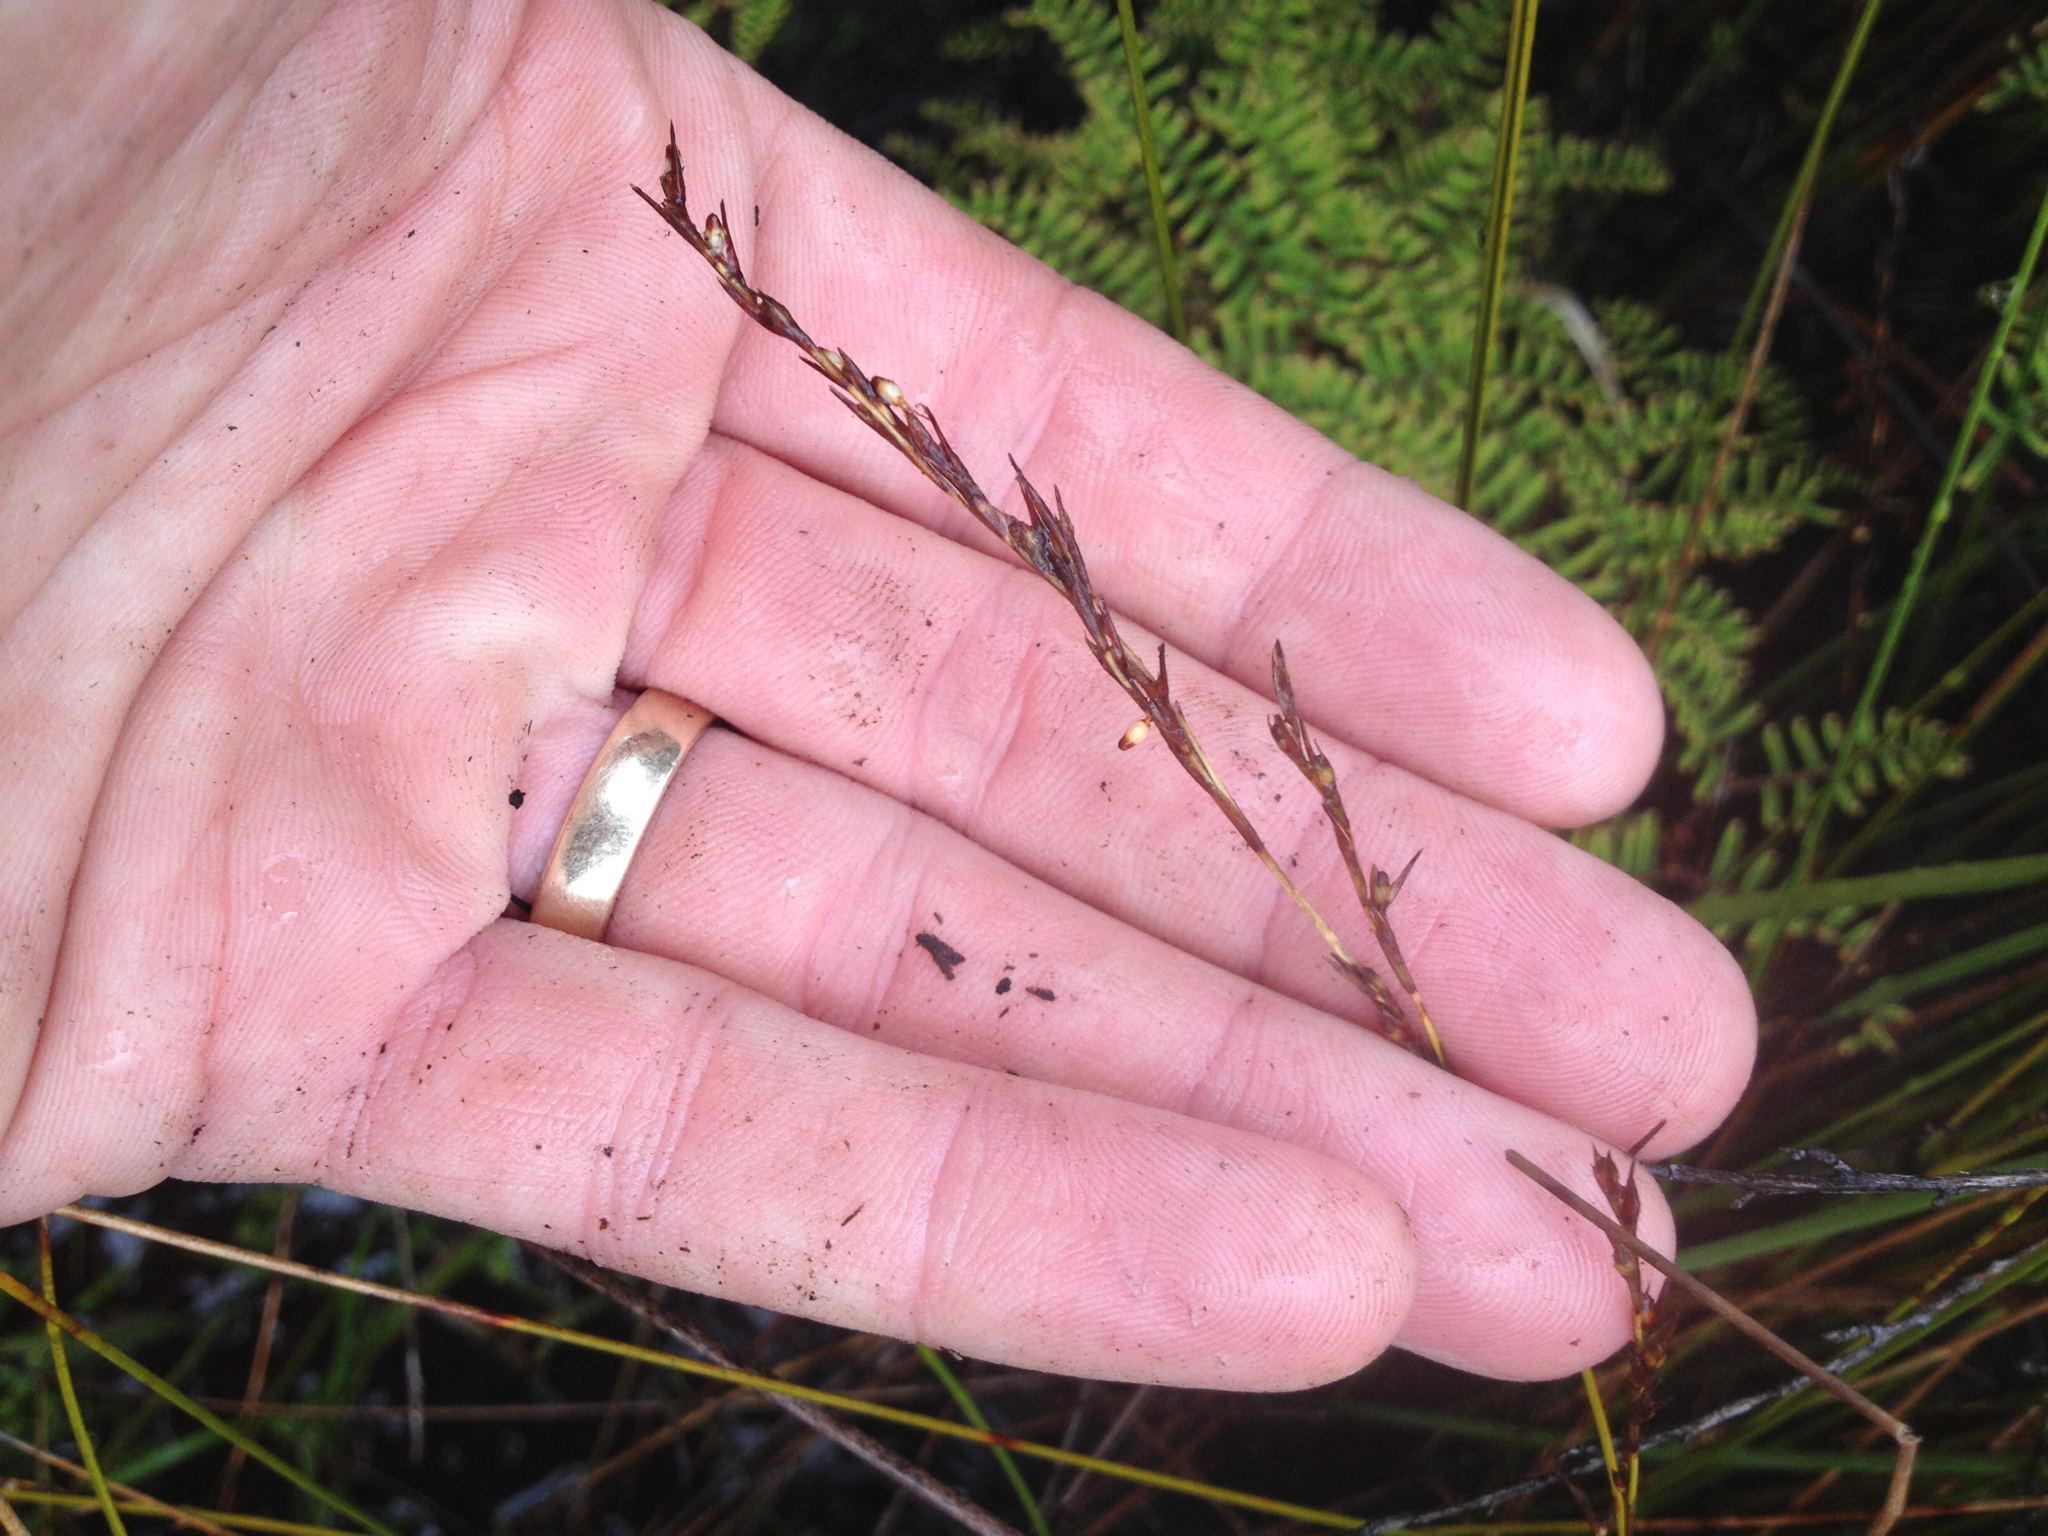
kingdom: Plantae
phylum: Tracheophyta
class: Liliopsida
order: Poales
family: Cyperaceae
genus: Machaerina
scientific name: Machaerina juncea
